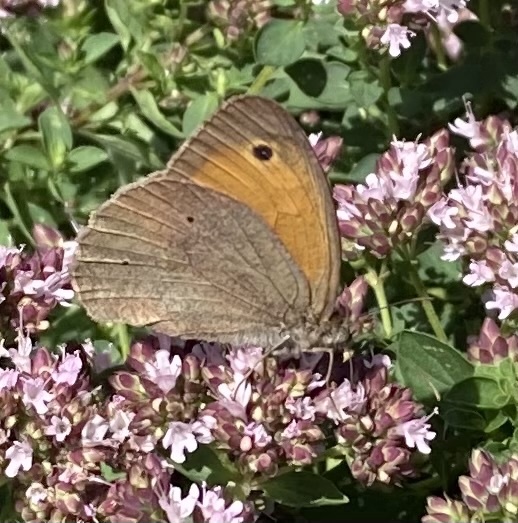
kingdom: Animalia
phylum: Arthropoda
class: Insecta
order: Lepidoptera
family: Nymphalidae
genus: Maniola
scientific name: Maniola jurtina
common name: Meadow brown
